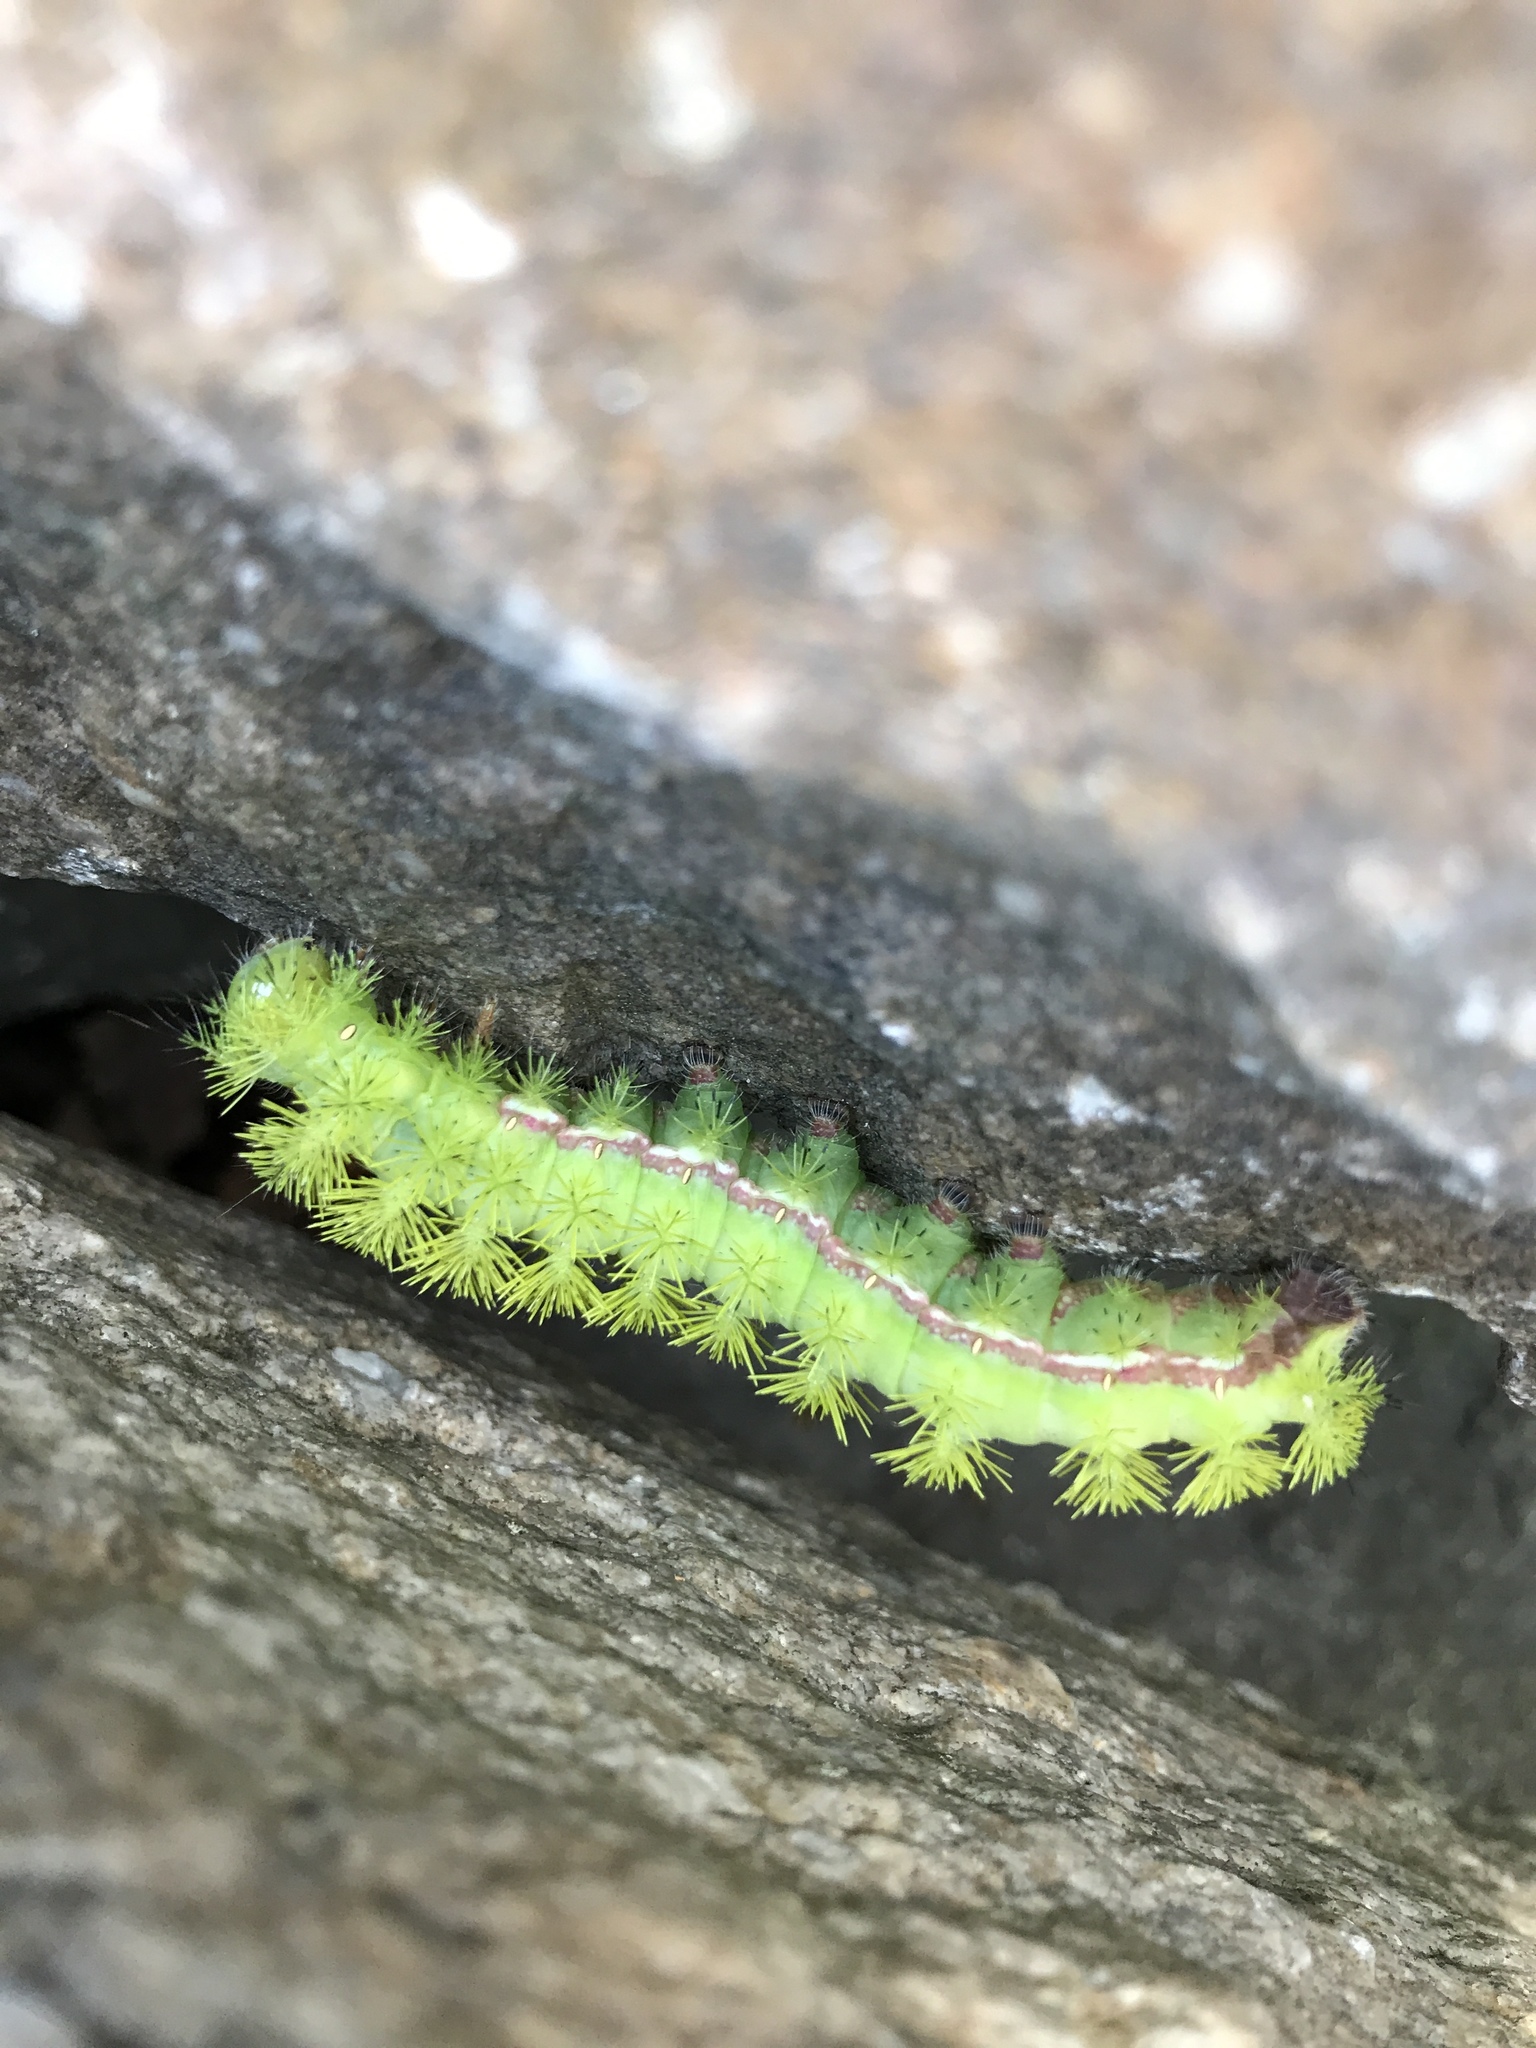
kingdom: Animalia
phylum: Arthropoda
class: Insecta
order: Lepidoptera
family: Saturniidae
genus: Automeris
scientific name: Automeris io
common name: Io moth
